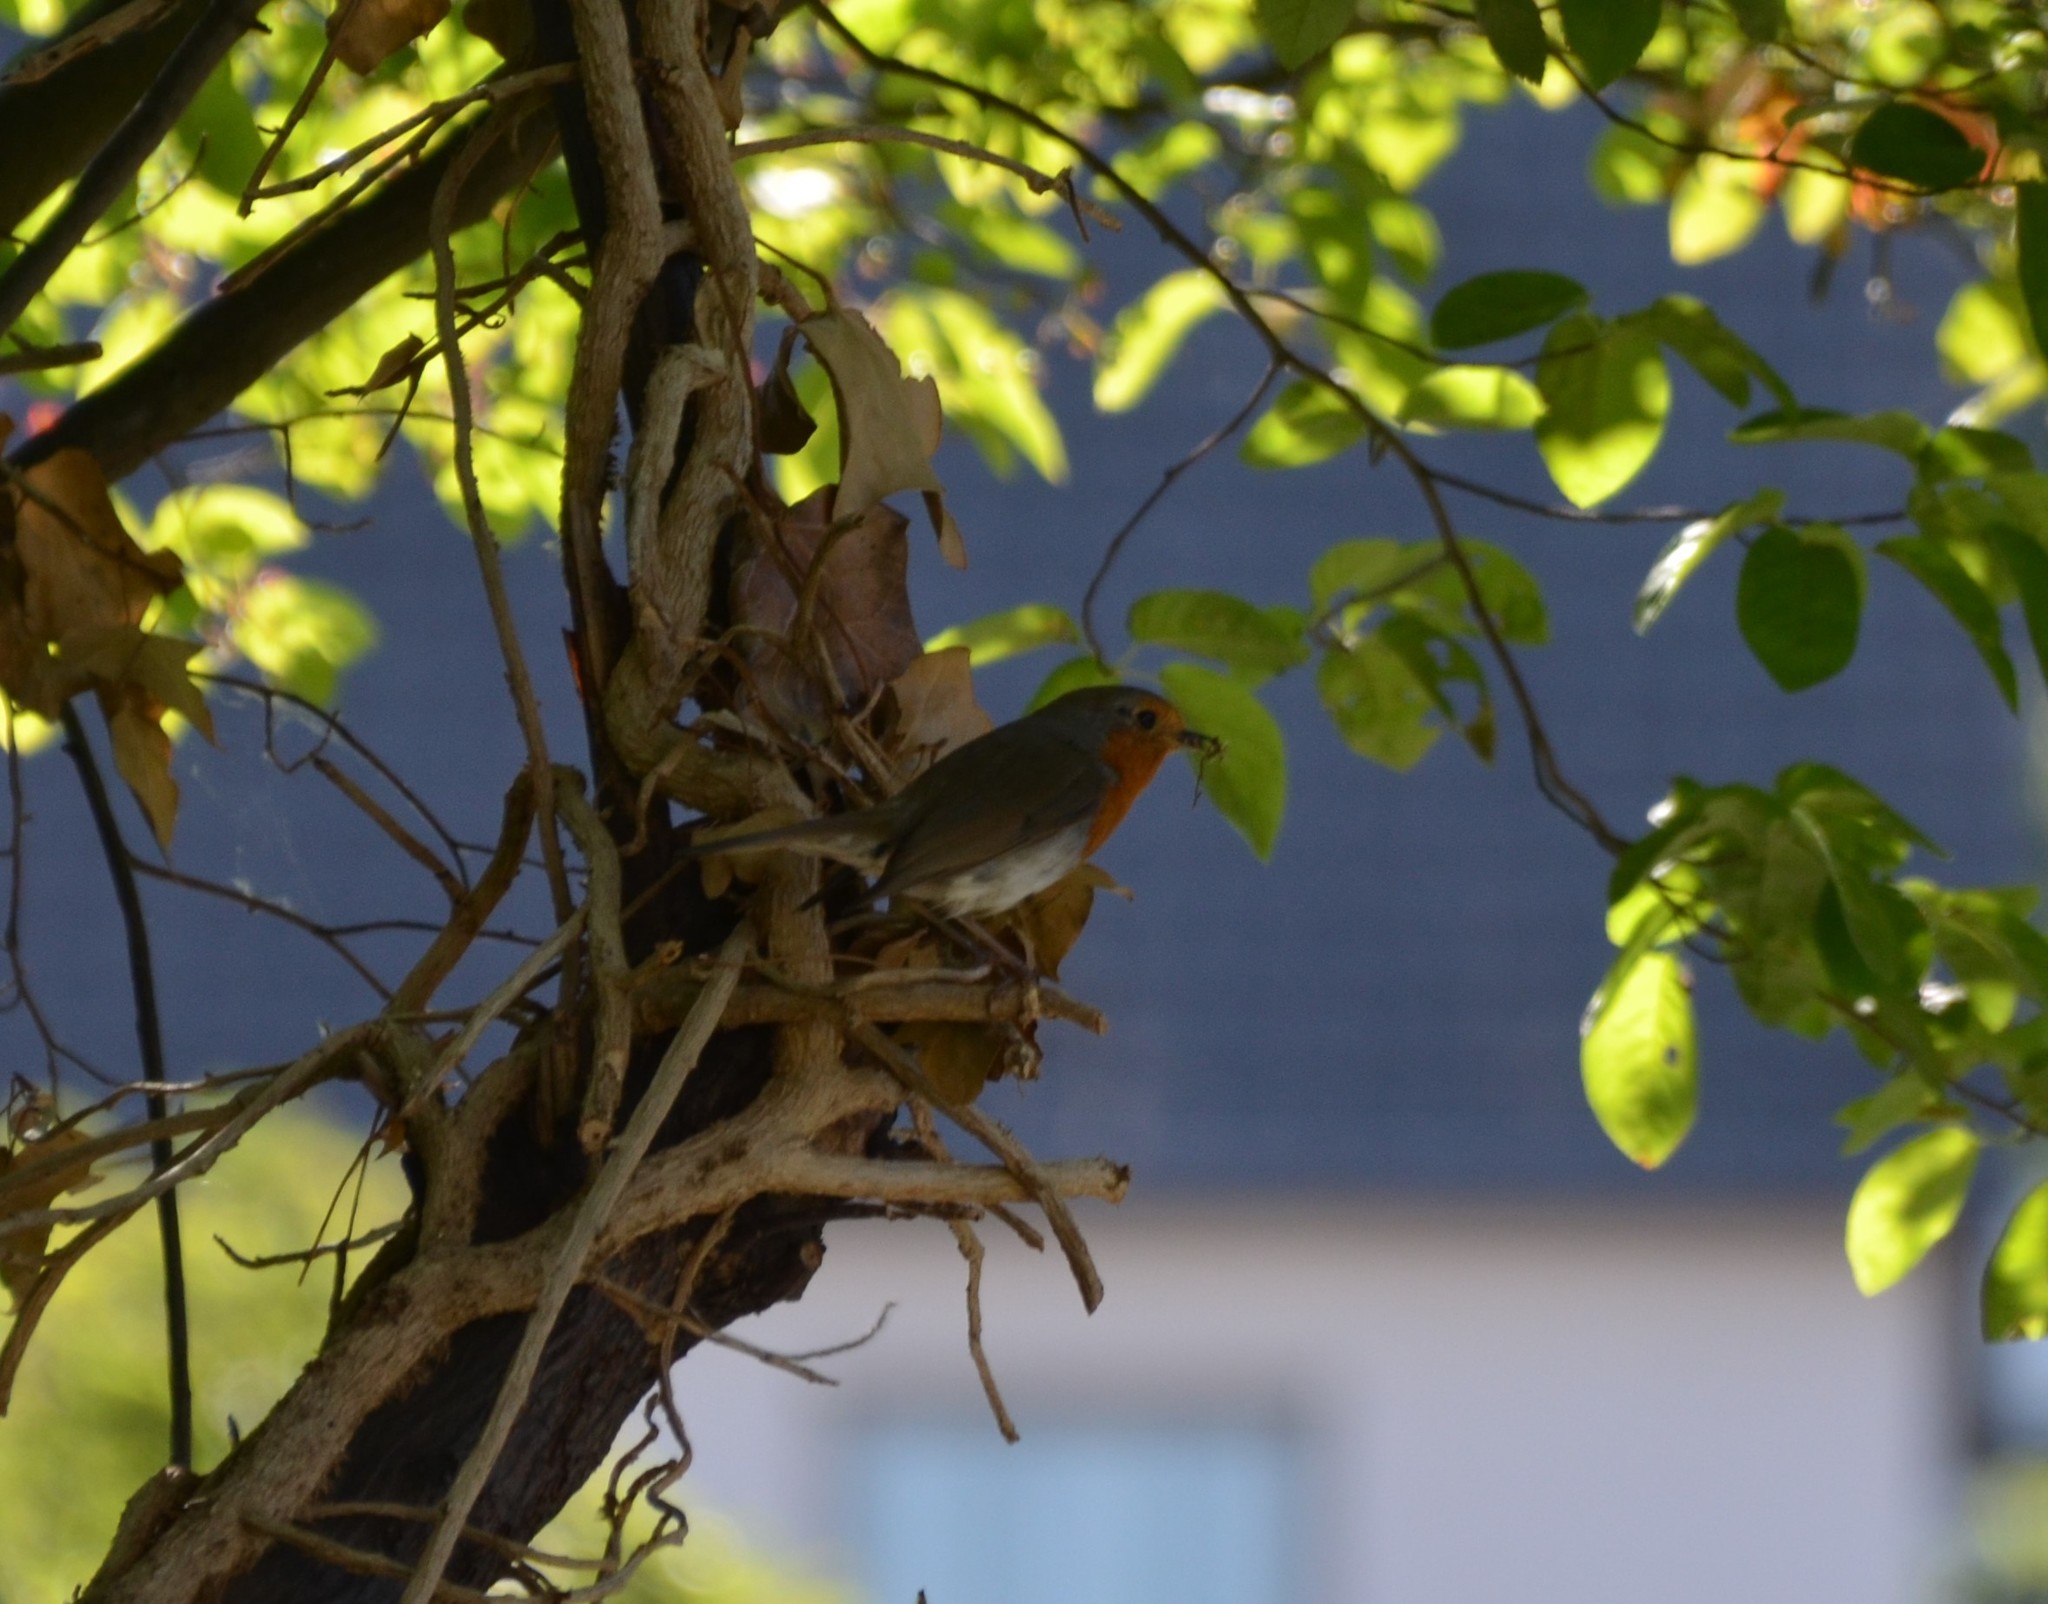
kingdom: Animalia
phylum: Chordata
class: Aves
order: Passeriformes
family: Muscicapidae
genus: Erithacus
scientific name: Erithacus rubecula
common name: European robin
